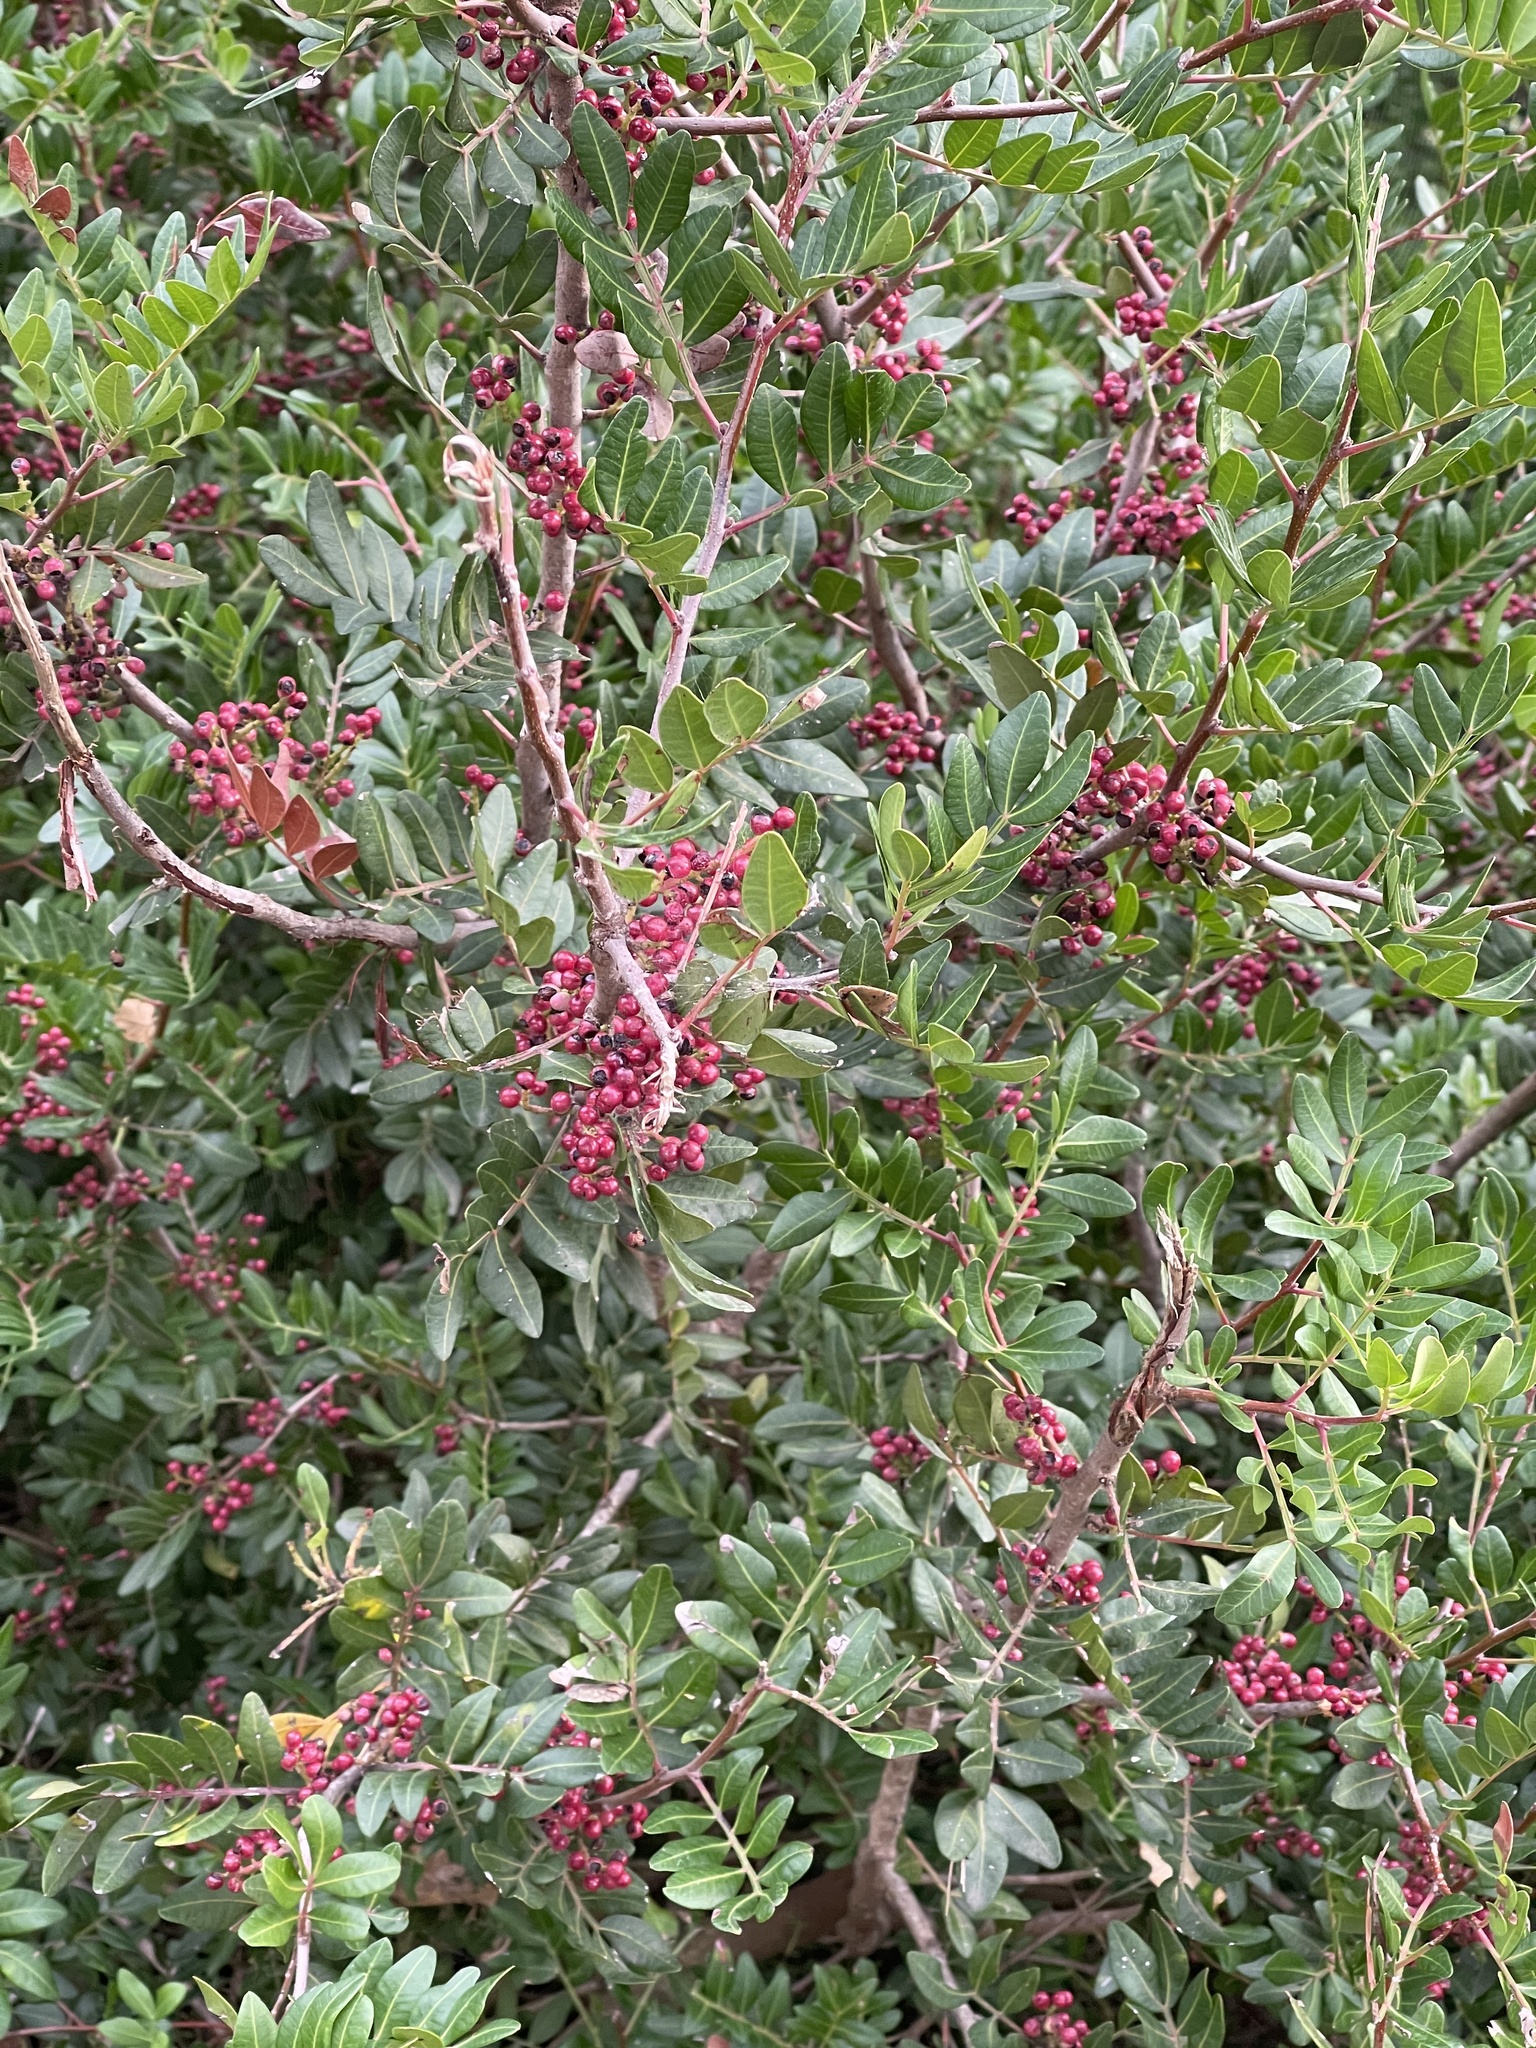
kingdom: Plantae
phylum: Tracheophyta
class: Magnoliopsida
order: Sapindales
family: Anacardiaceae
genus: Pistacia
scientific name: Pistacia lentiscus
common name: Lentisk
